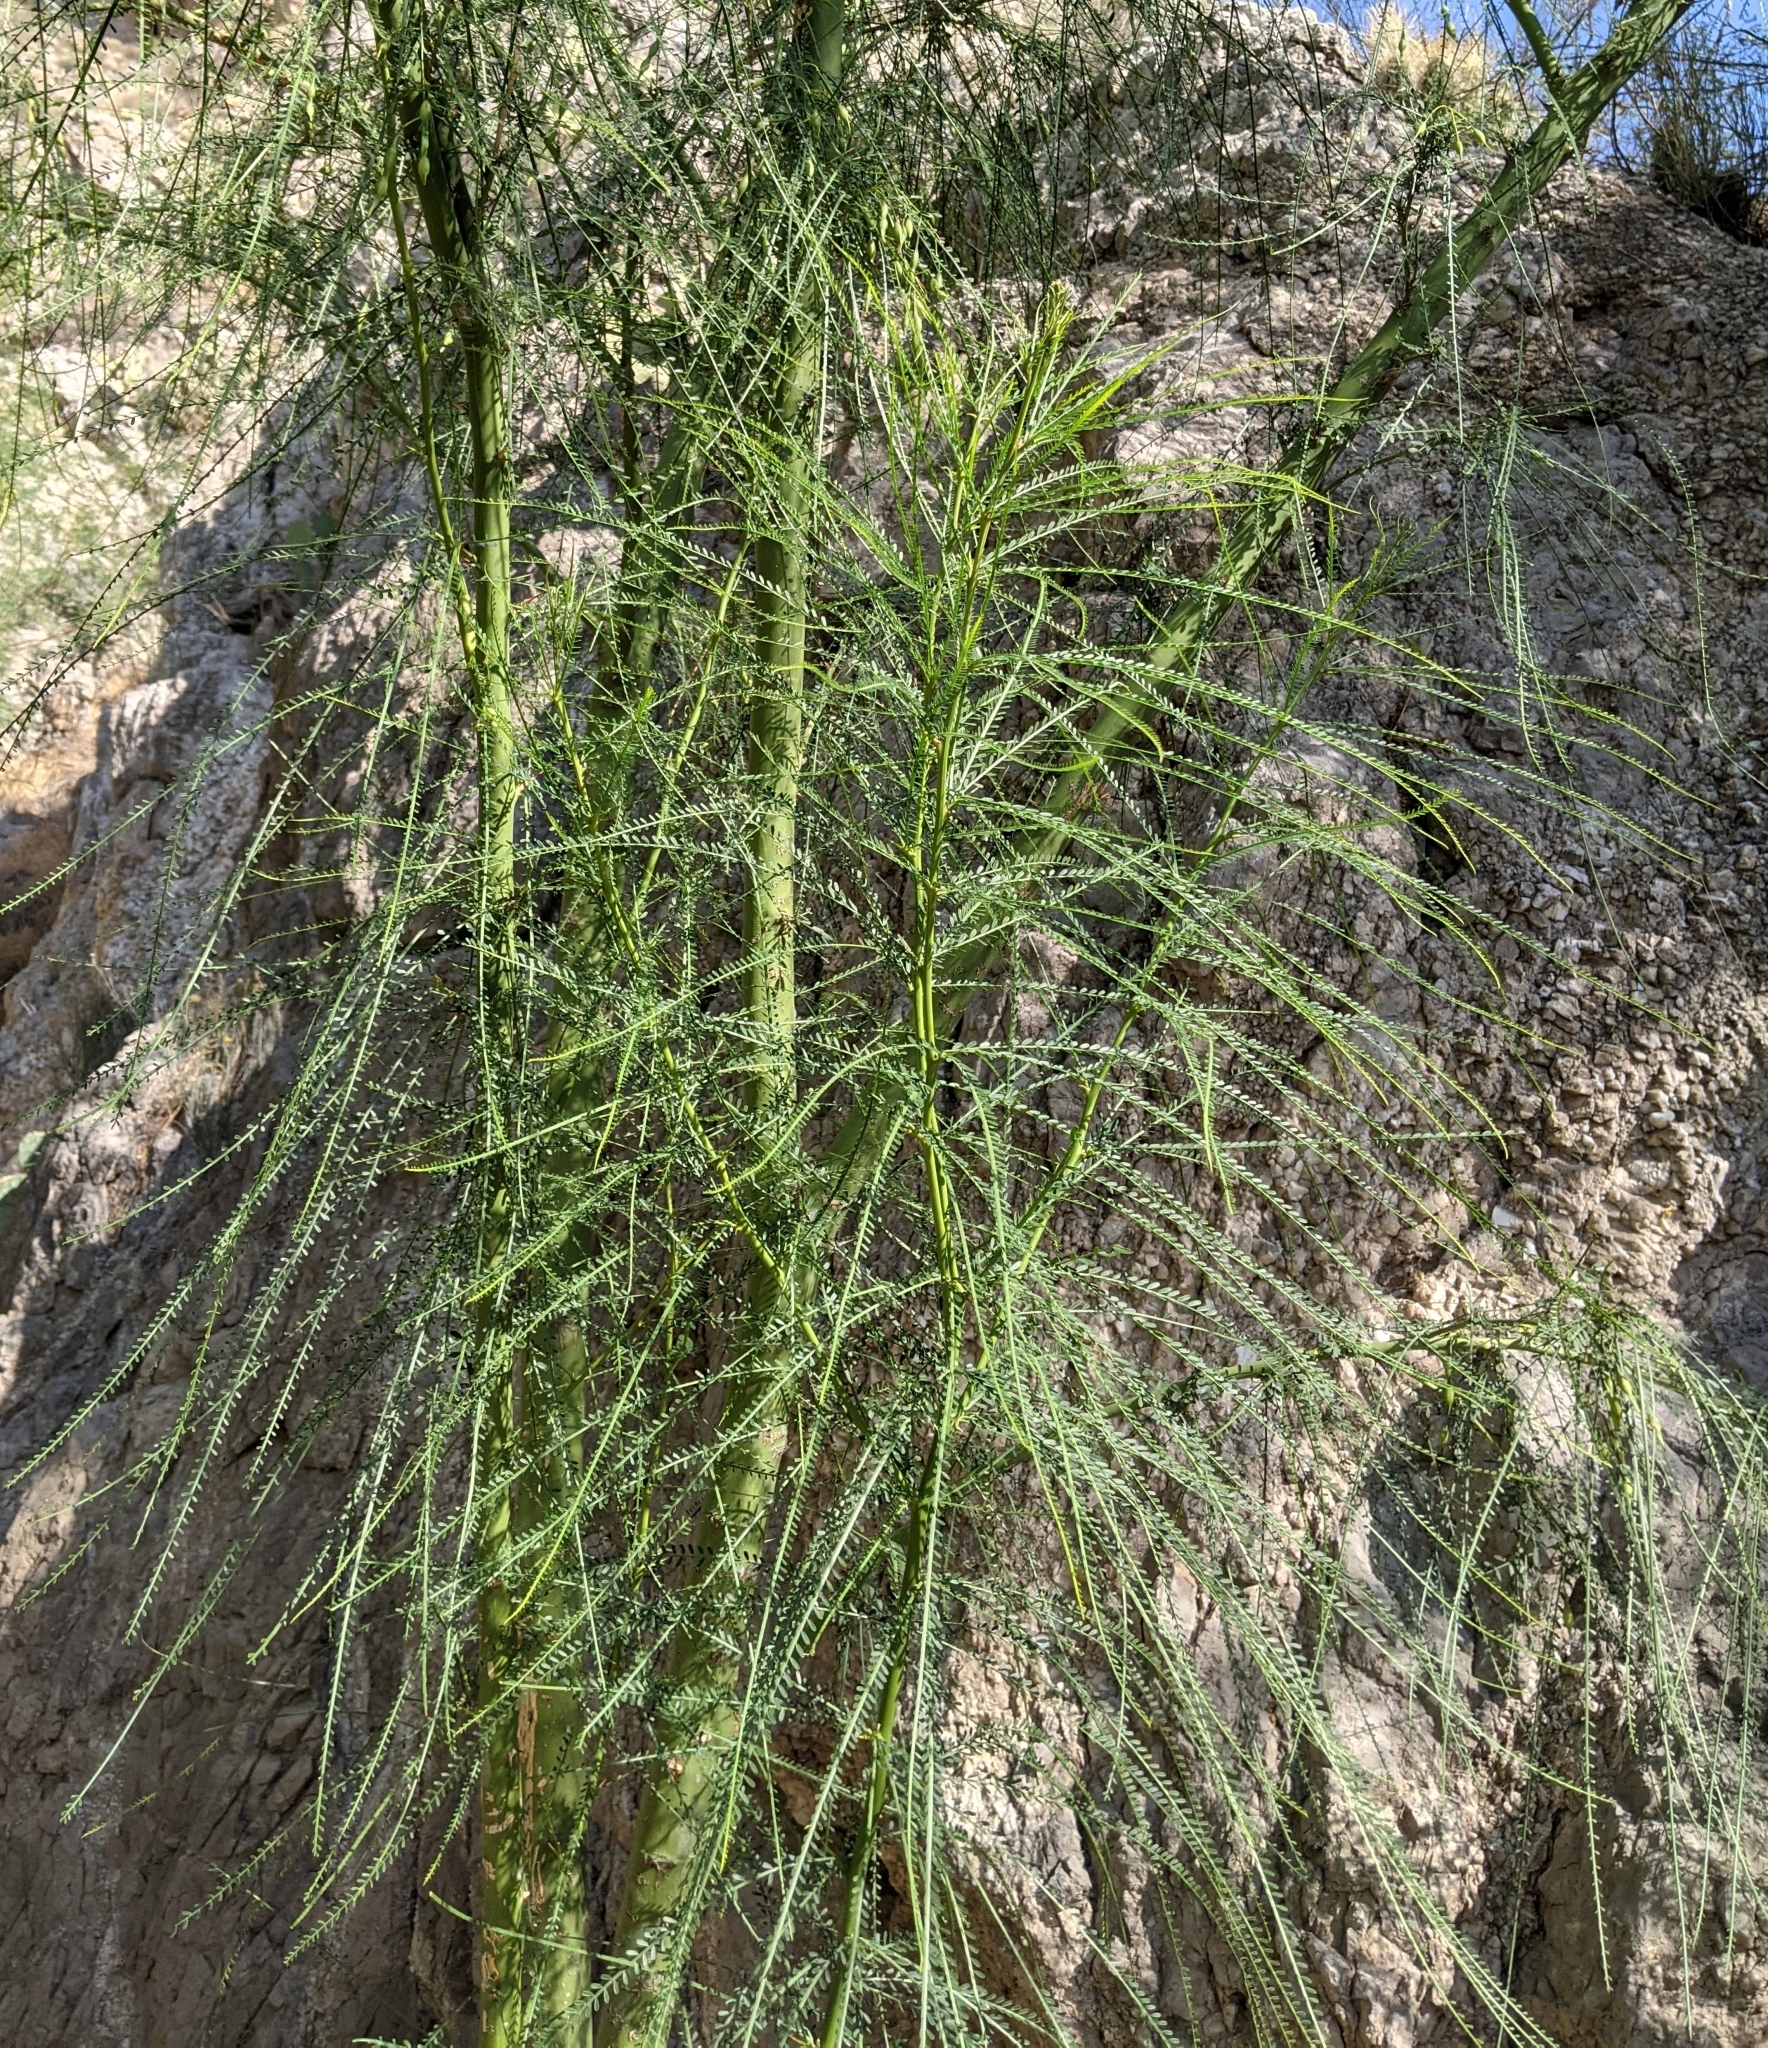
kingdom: Plantae
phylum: Tracheophyta
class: Magnoliopsida
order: Fabales
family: Fabaceae
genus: Parkinsonia
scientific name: Parkinsonia aculeata
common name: Jerusalem thorn
